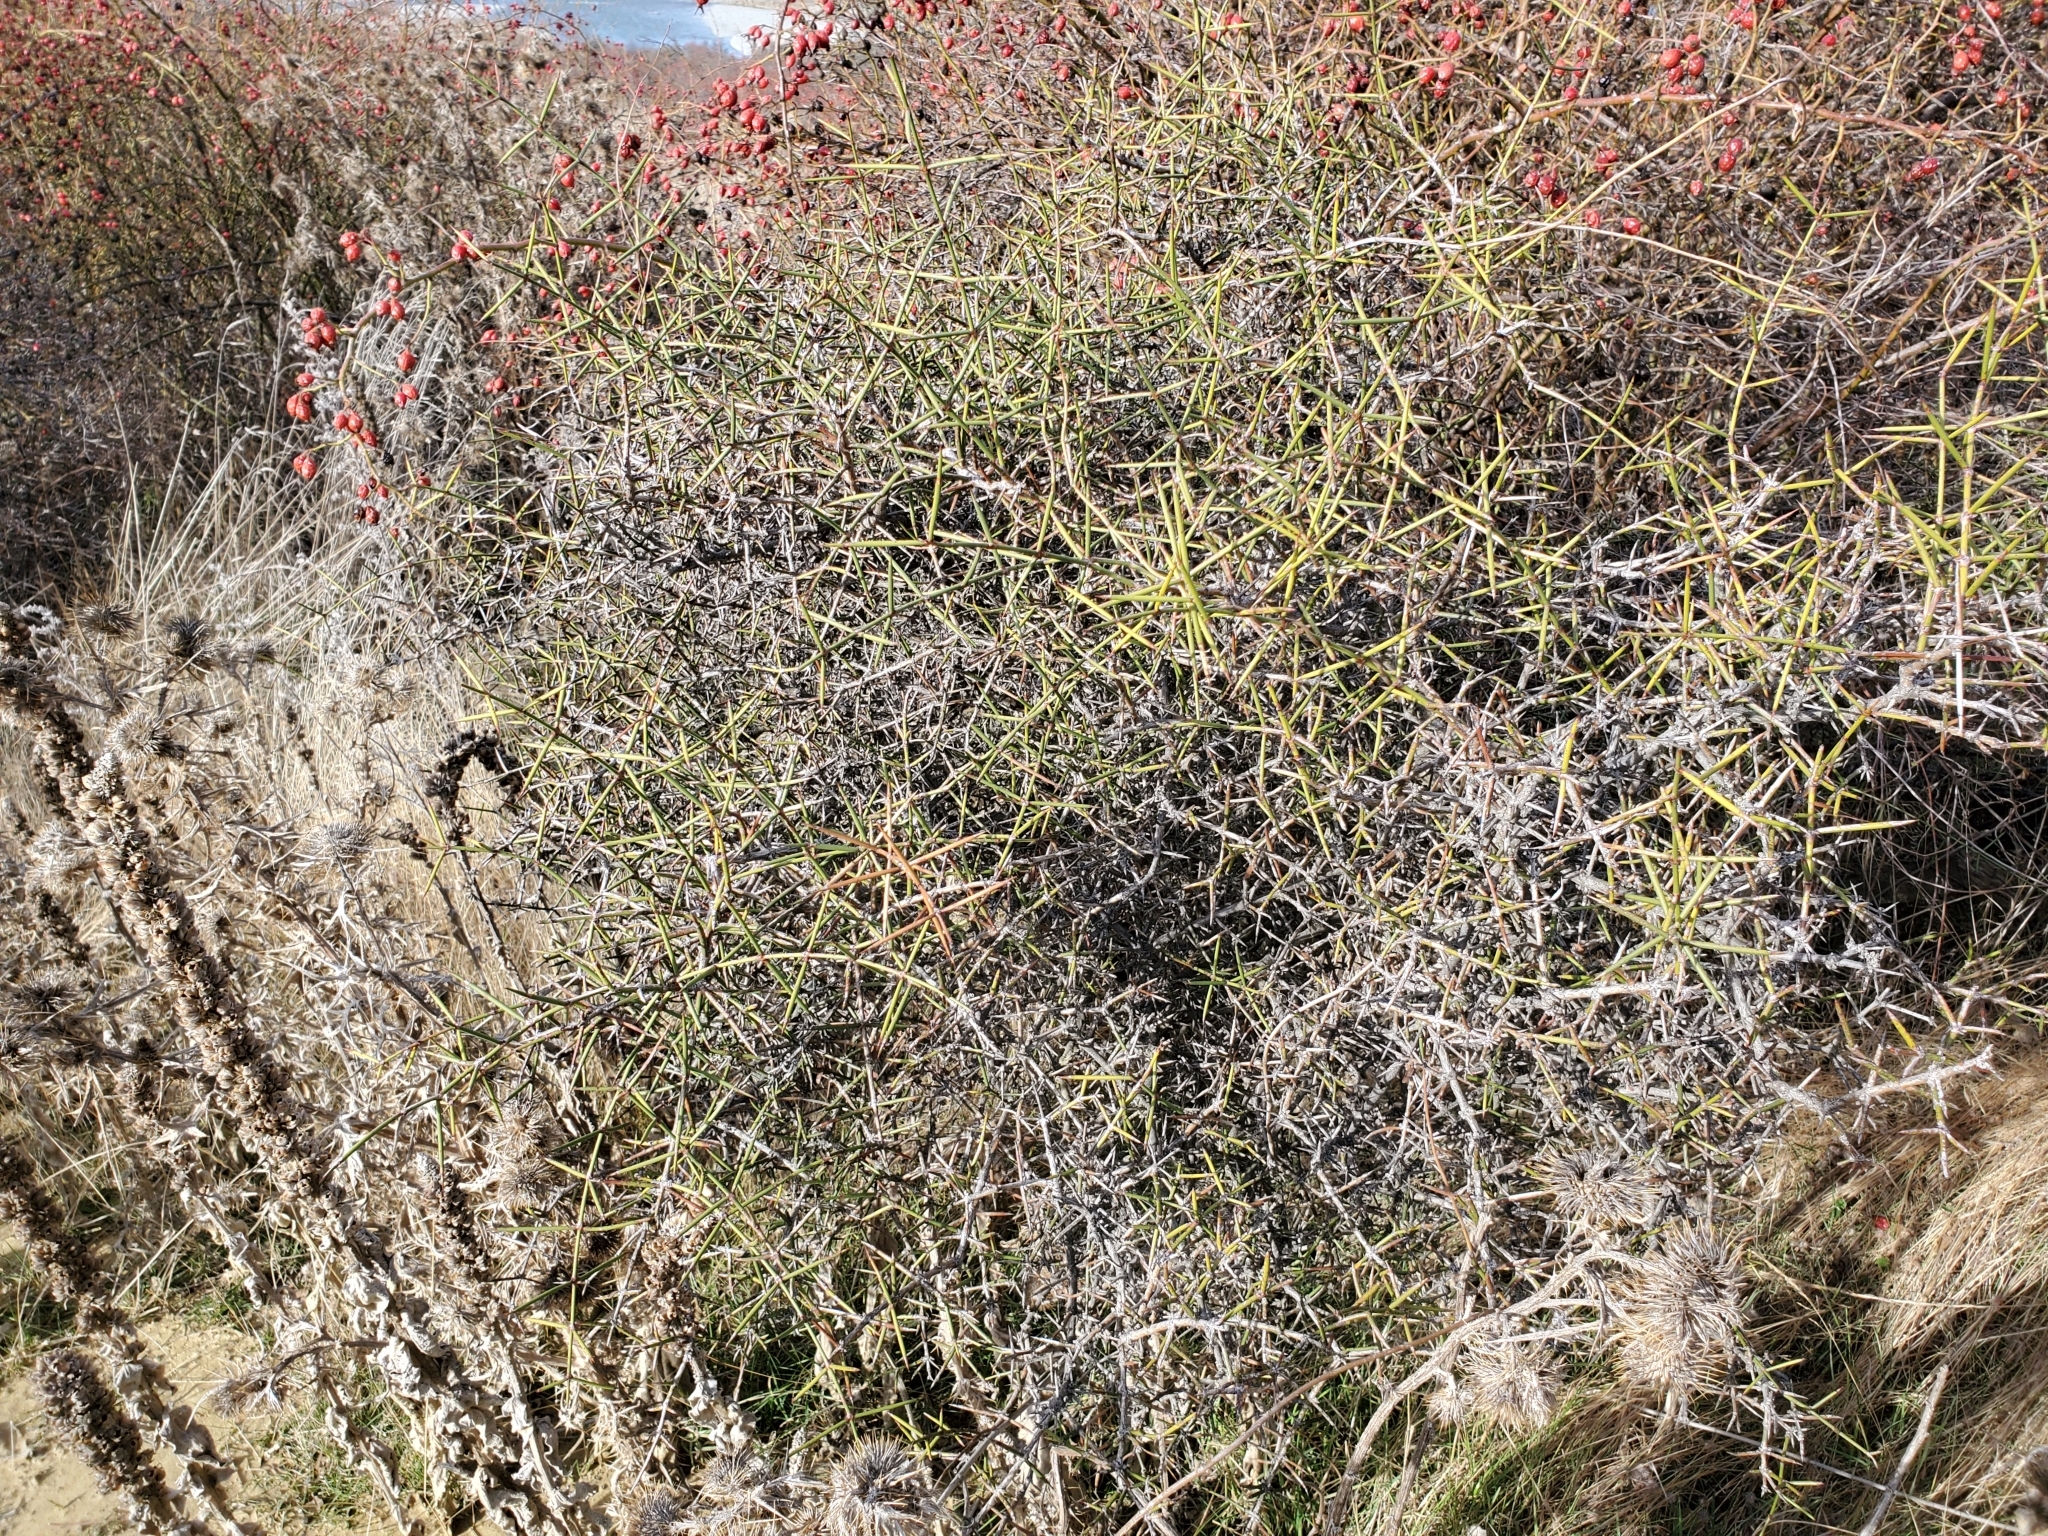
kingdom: Plantae
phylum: Tracheophyta
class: Magnoliopsida
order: Rosales
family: Rhamnaceae
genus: Discaria
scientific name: Discaria toumatou
